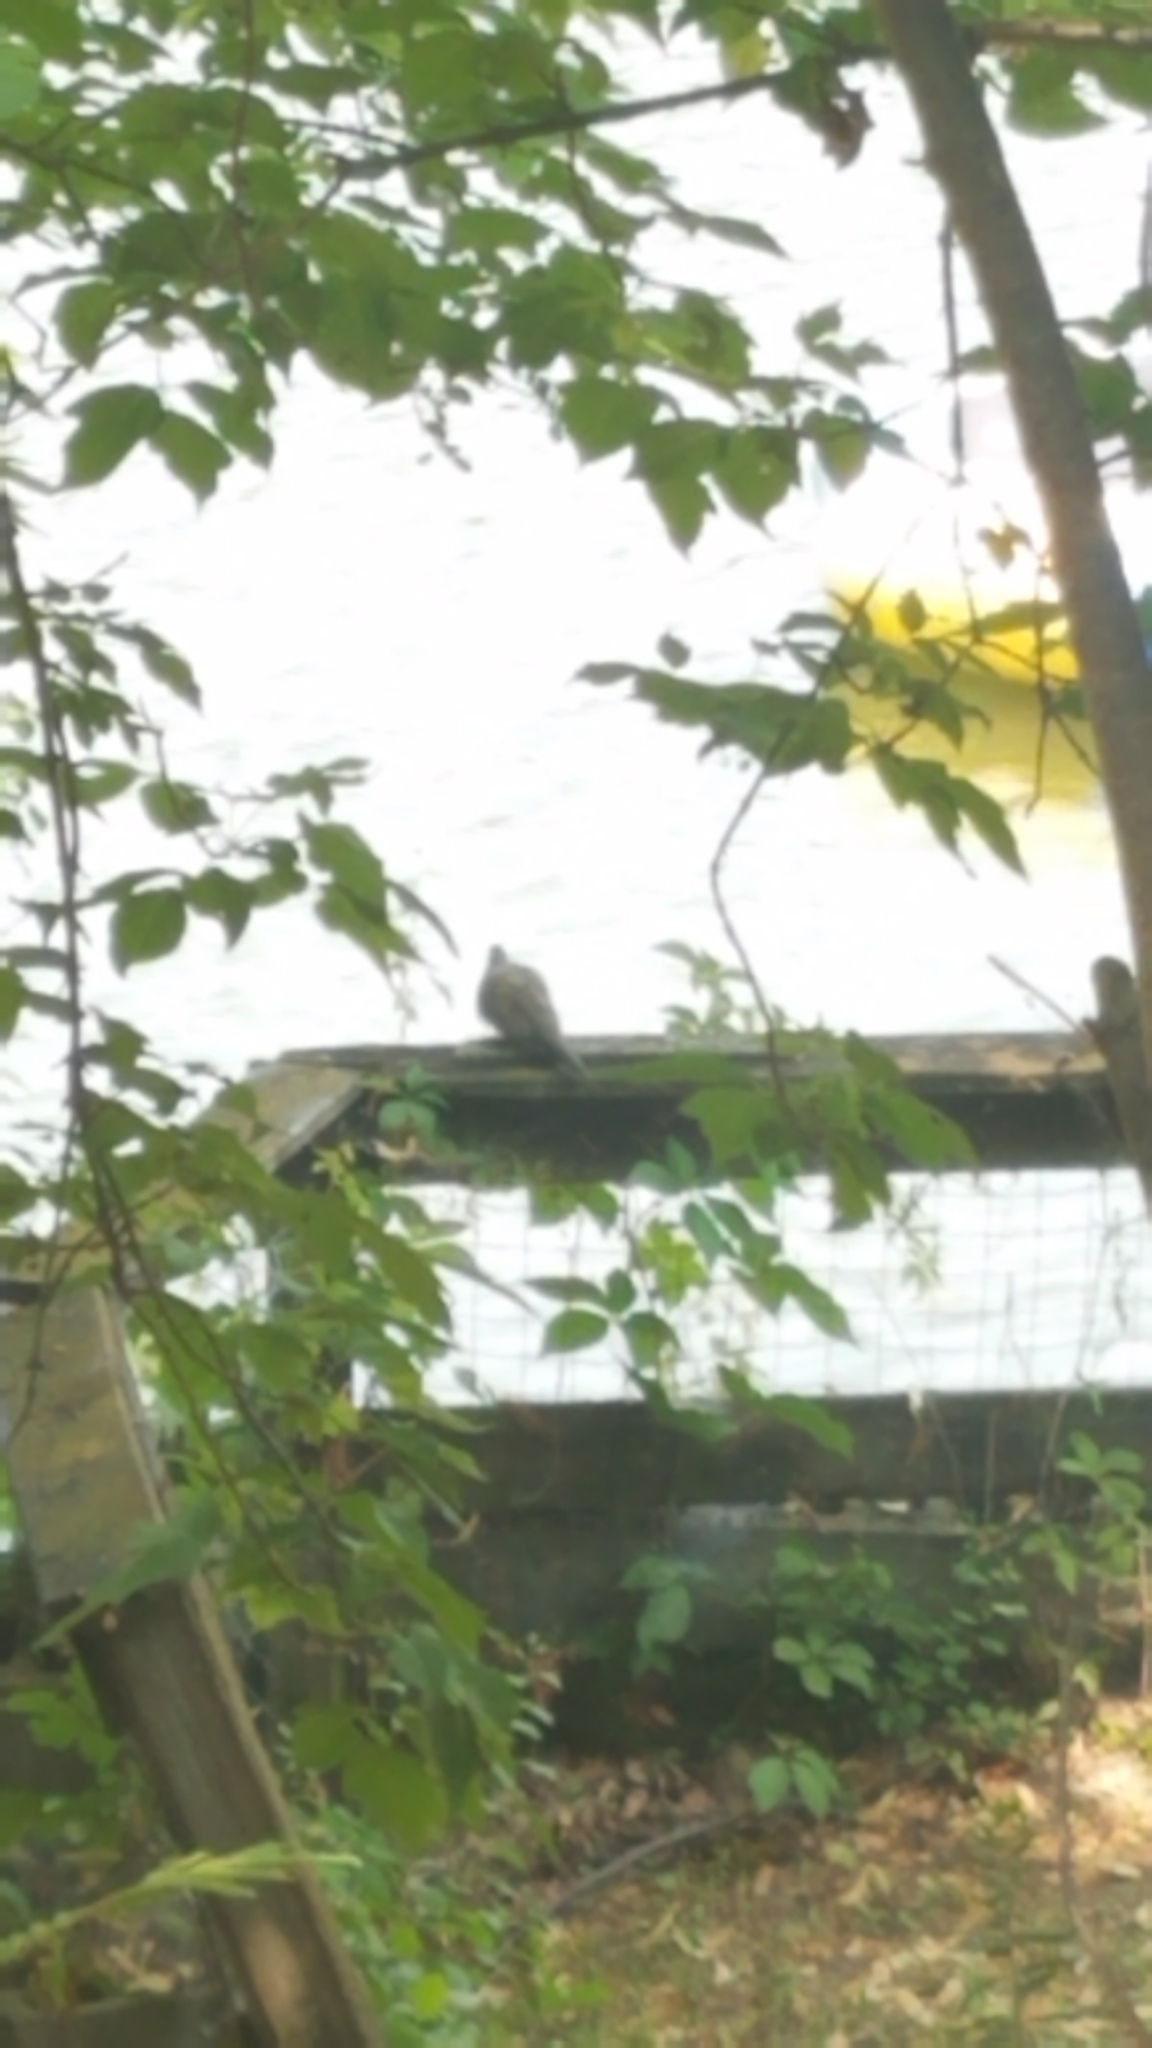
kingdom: Animalia
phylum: Chordata
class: Aves
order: Columbiformes
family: Columbidae
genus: Zenaida
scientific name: Zenaida macroura
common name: Mourning dove
